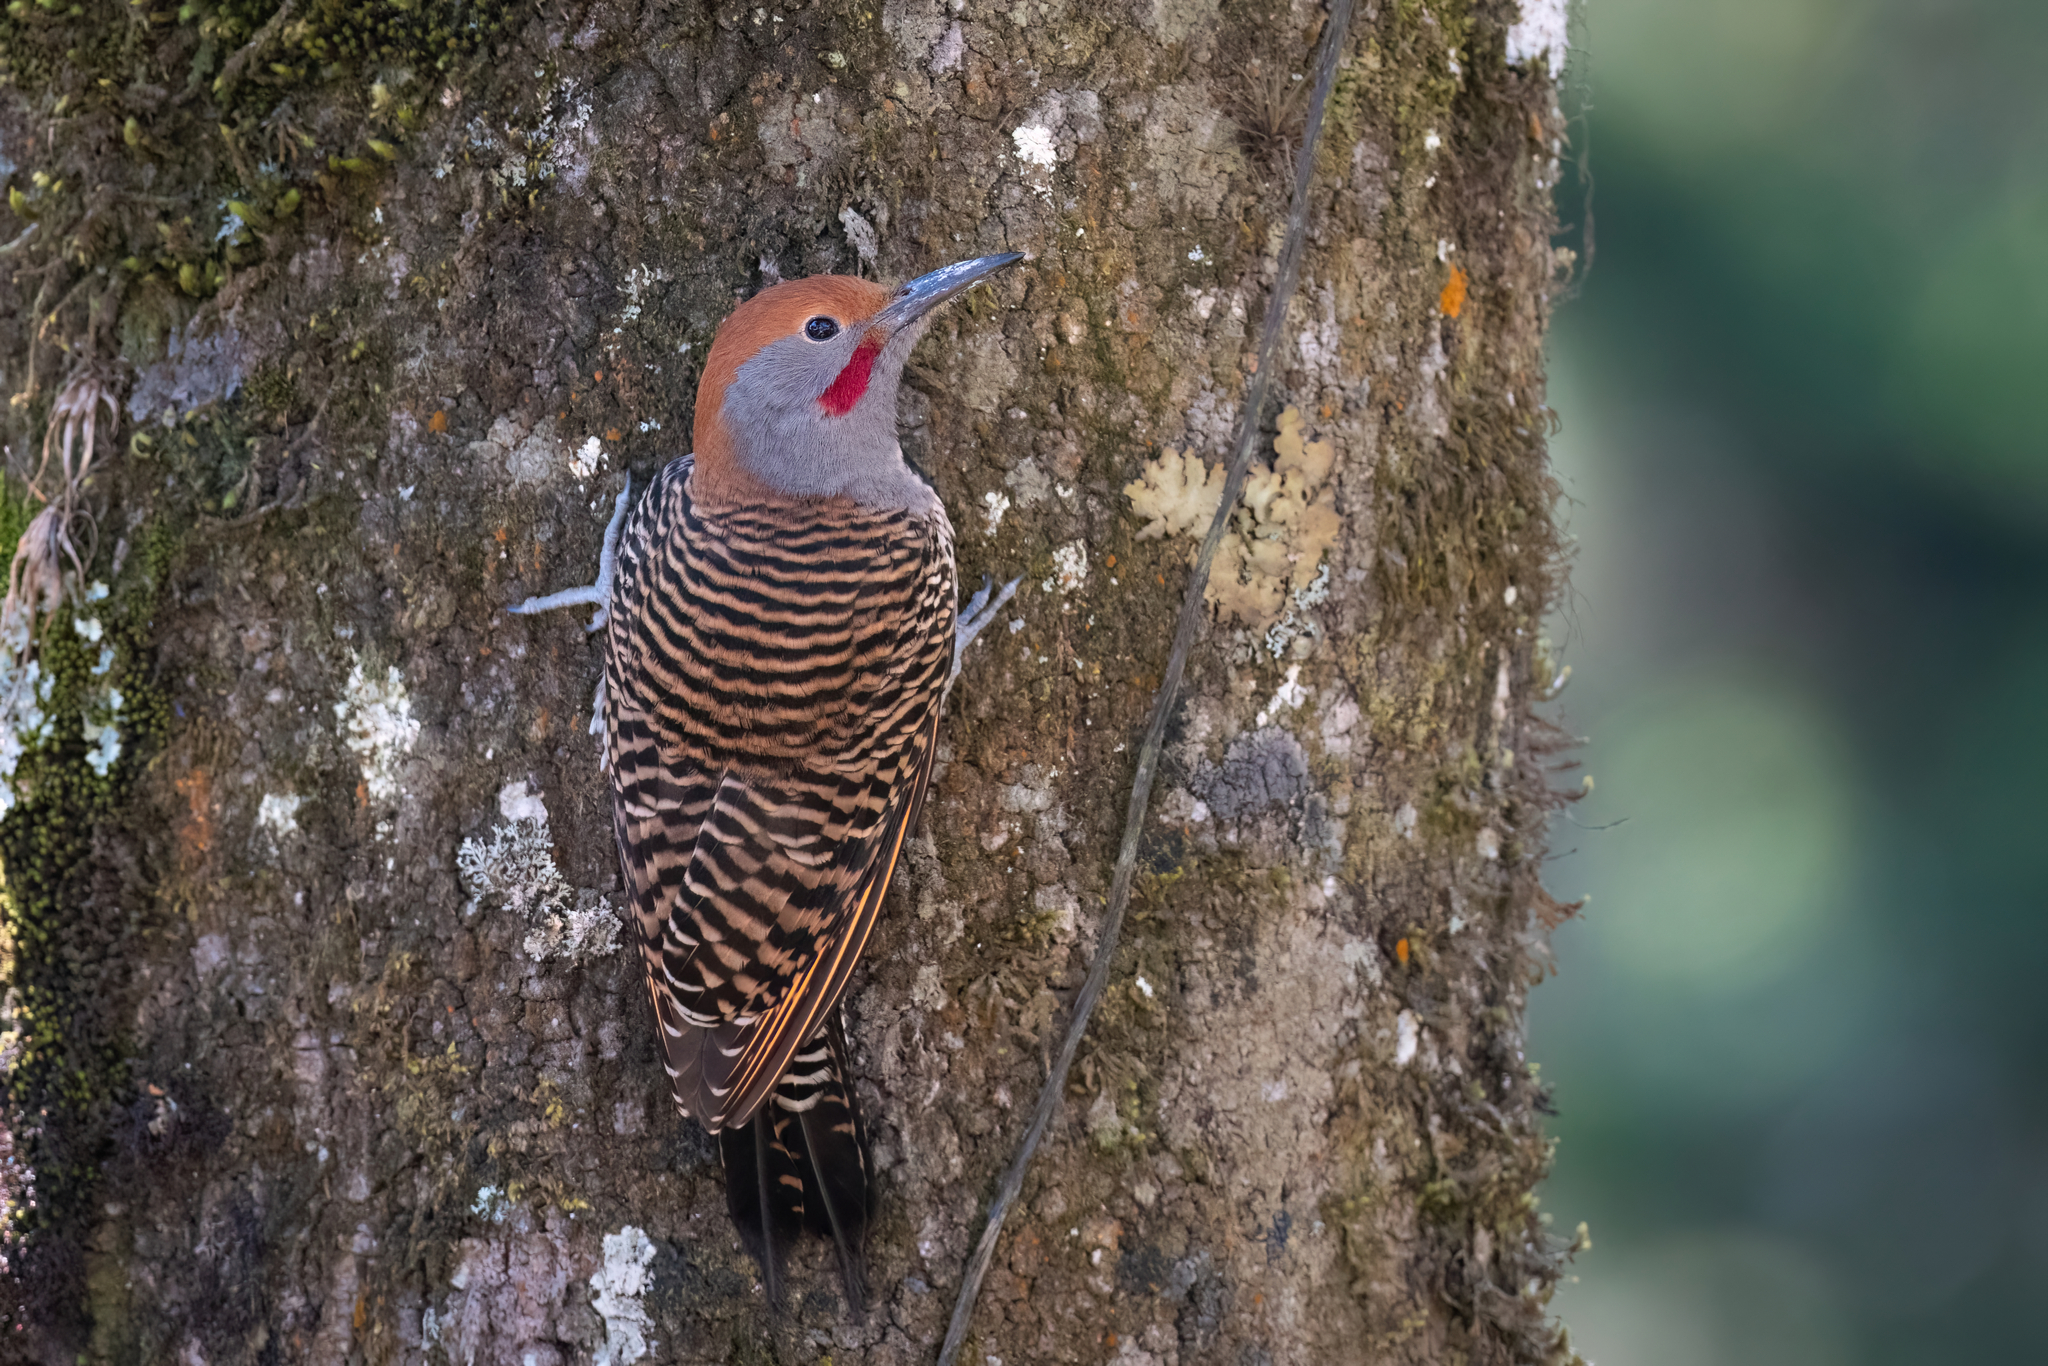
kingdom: Animalia
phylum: Chordata
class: Aves
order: Piciformes
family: Picidae
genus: Colaptes
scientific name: Colaptes auratus
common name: Northern flicker
